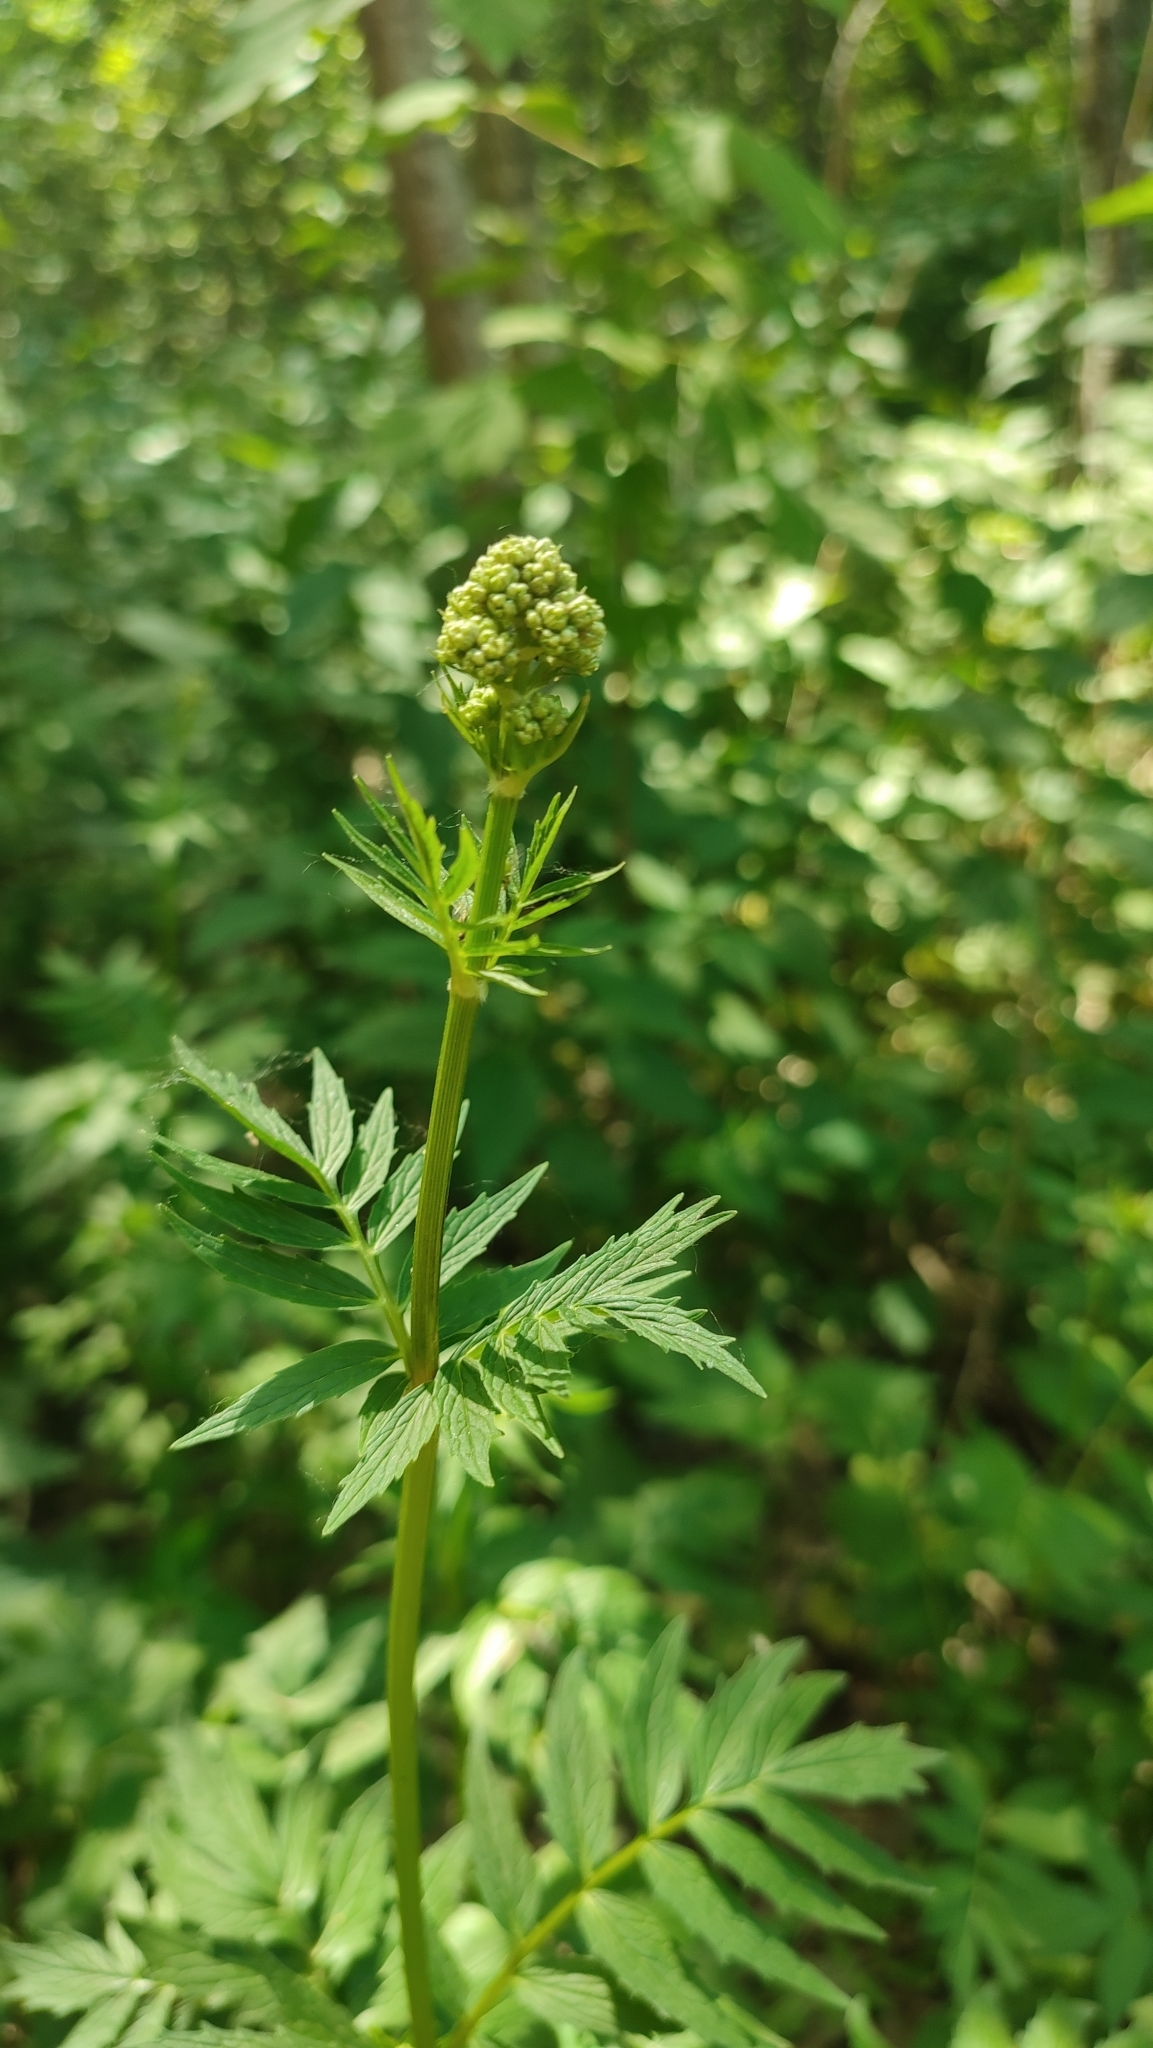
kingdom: Plantae
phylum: Tracheophyta
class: Magnoliopsida
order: Dipsacales
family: Caprifoliaceae
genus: Valeriana
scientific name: Valeriana wolgensis
